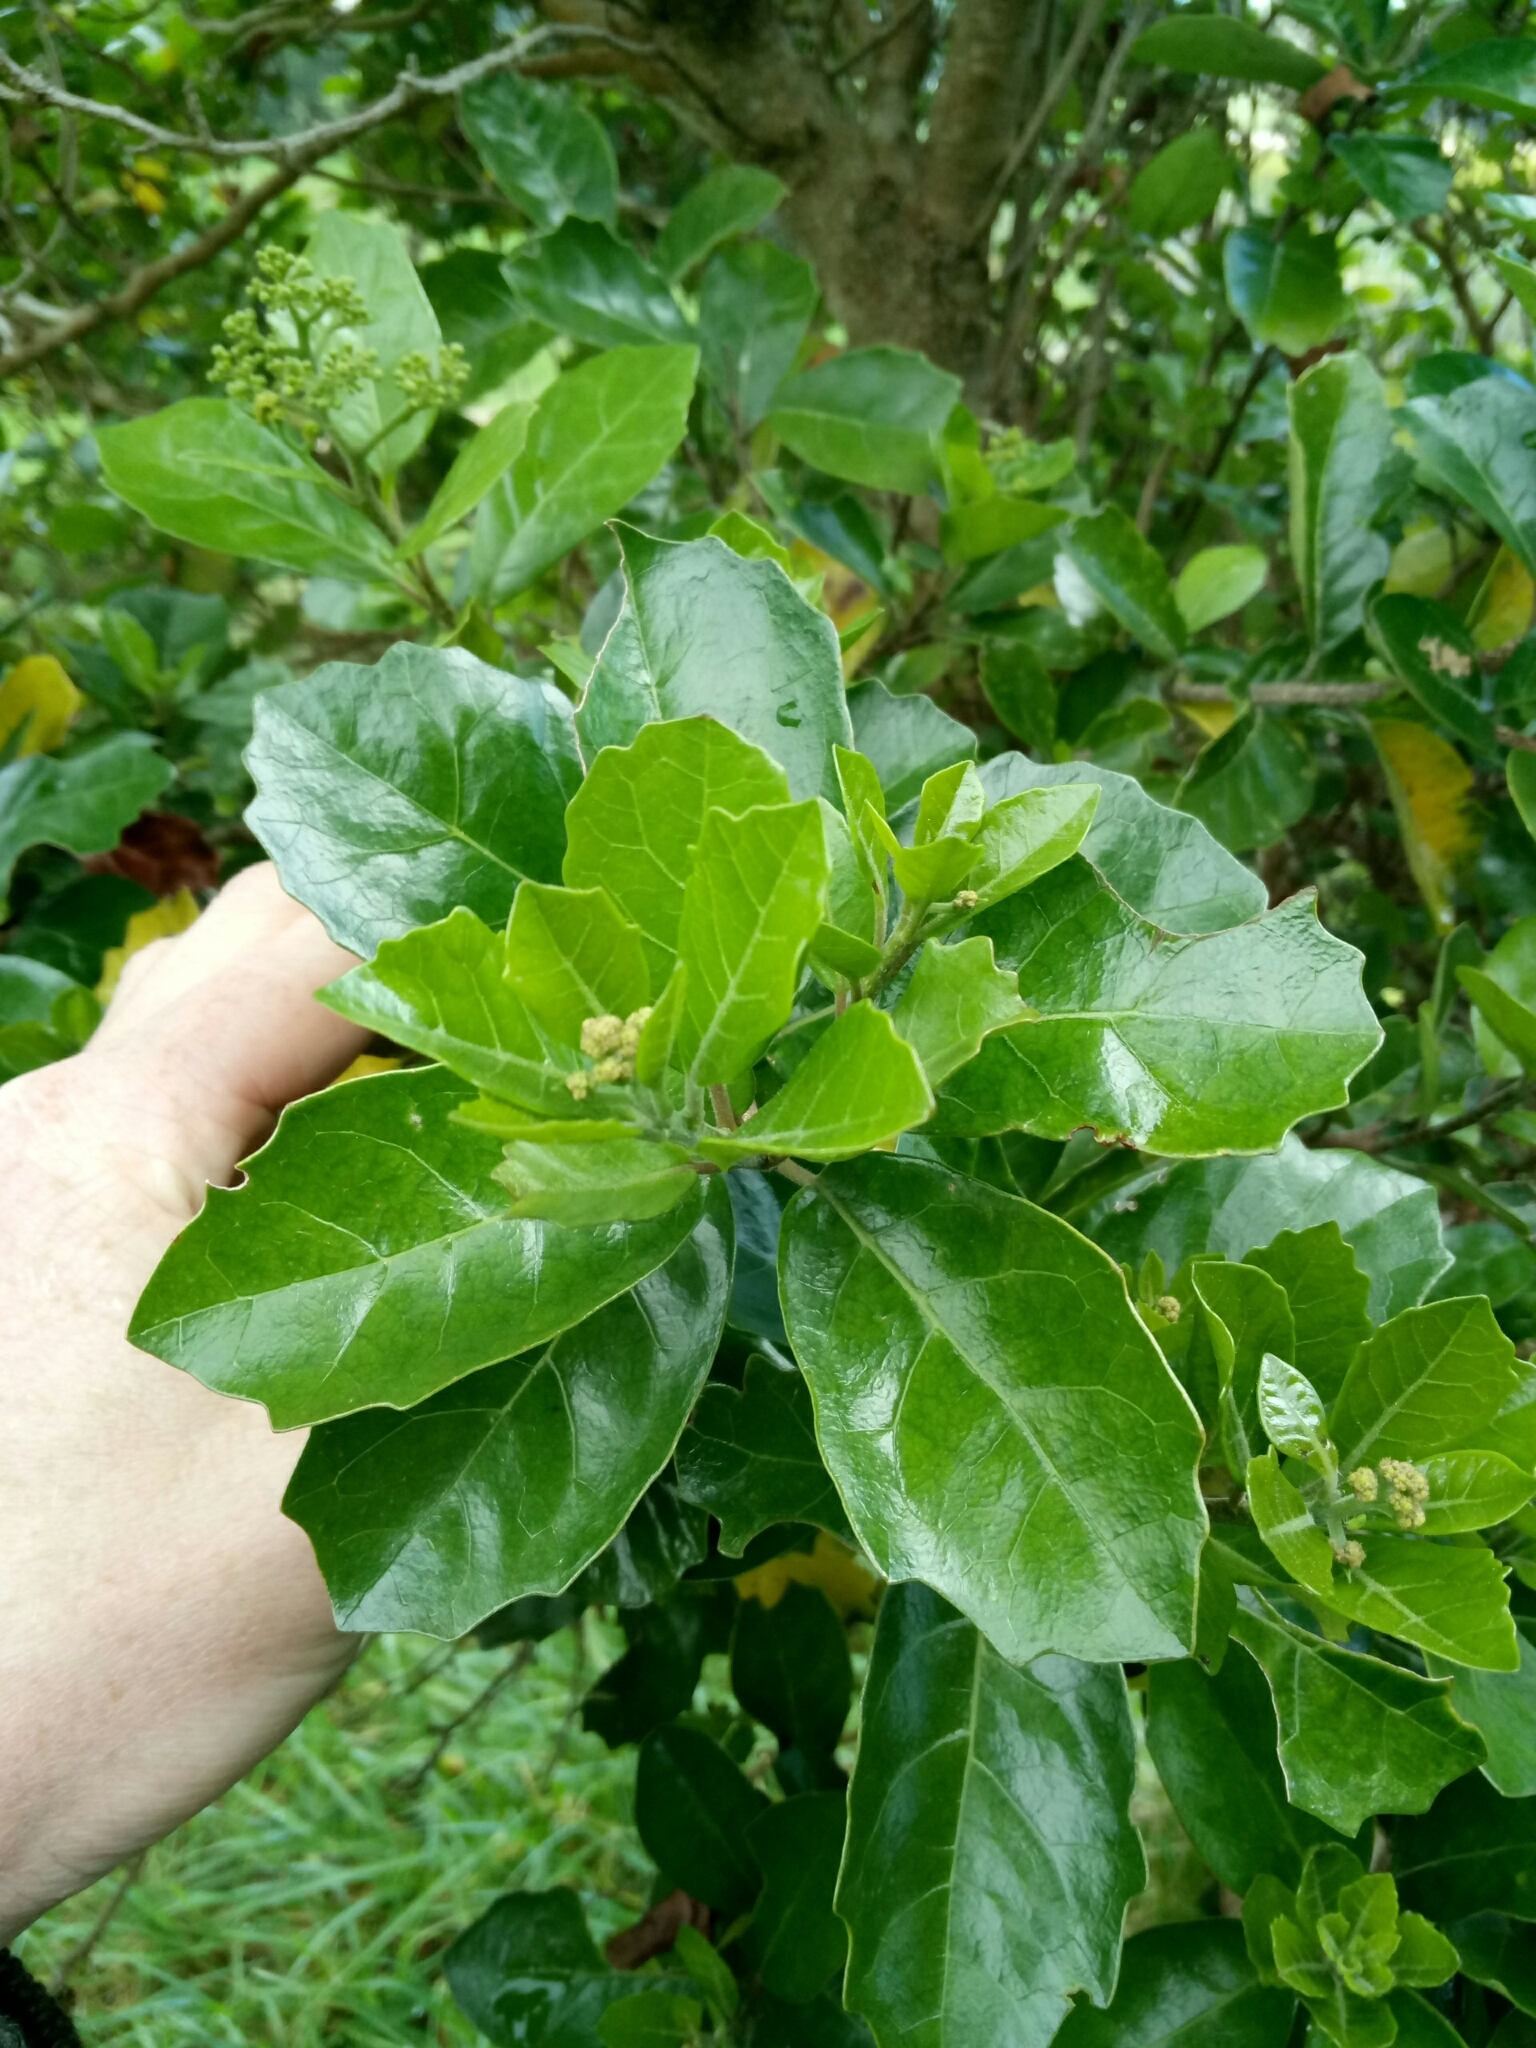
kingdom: Plantae
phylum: Tracheophyta
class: Magnoliopsida
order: Apiales
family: Pennantiaceae
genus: Pennantia
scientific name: Pennantia corymbosa
